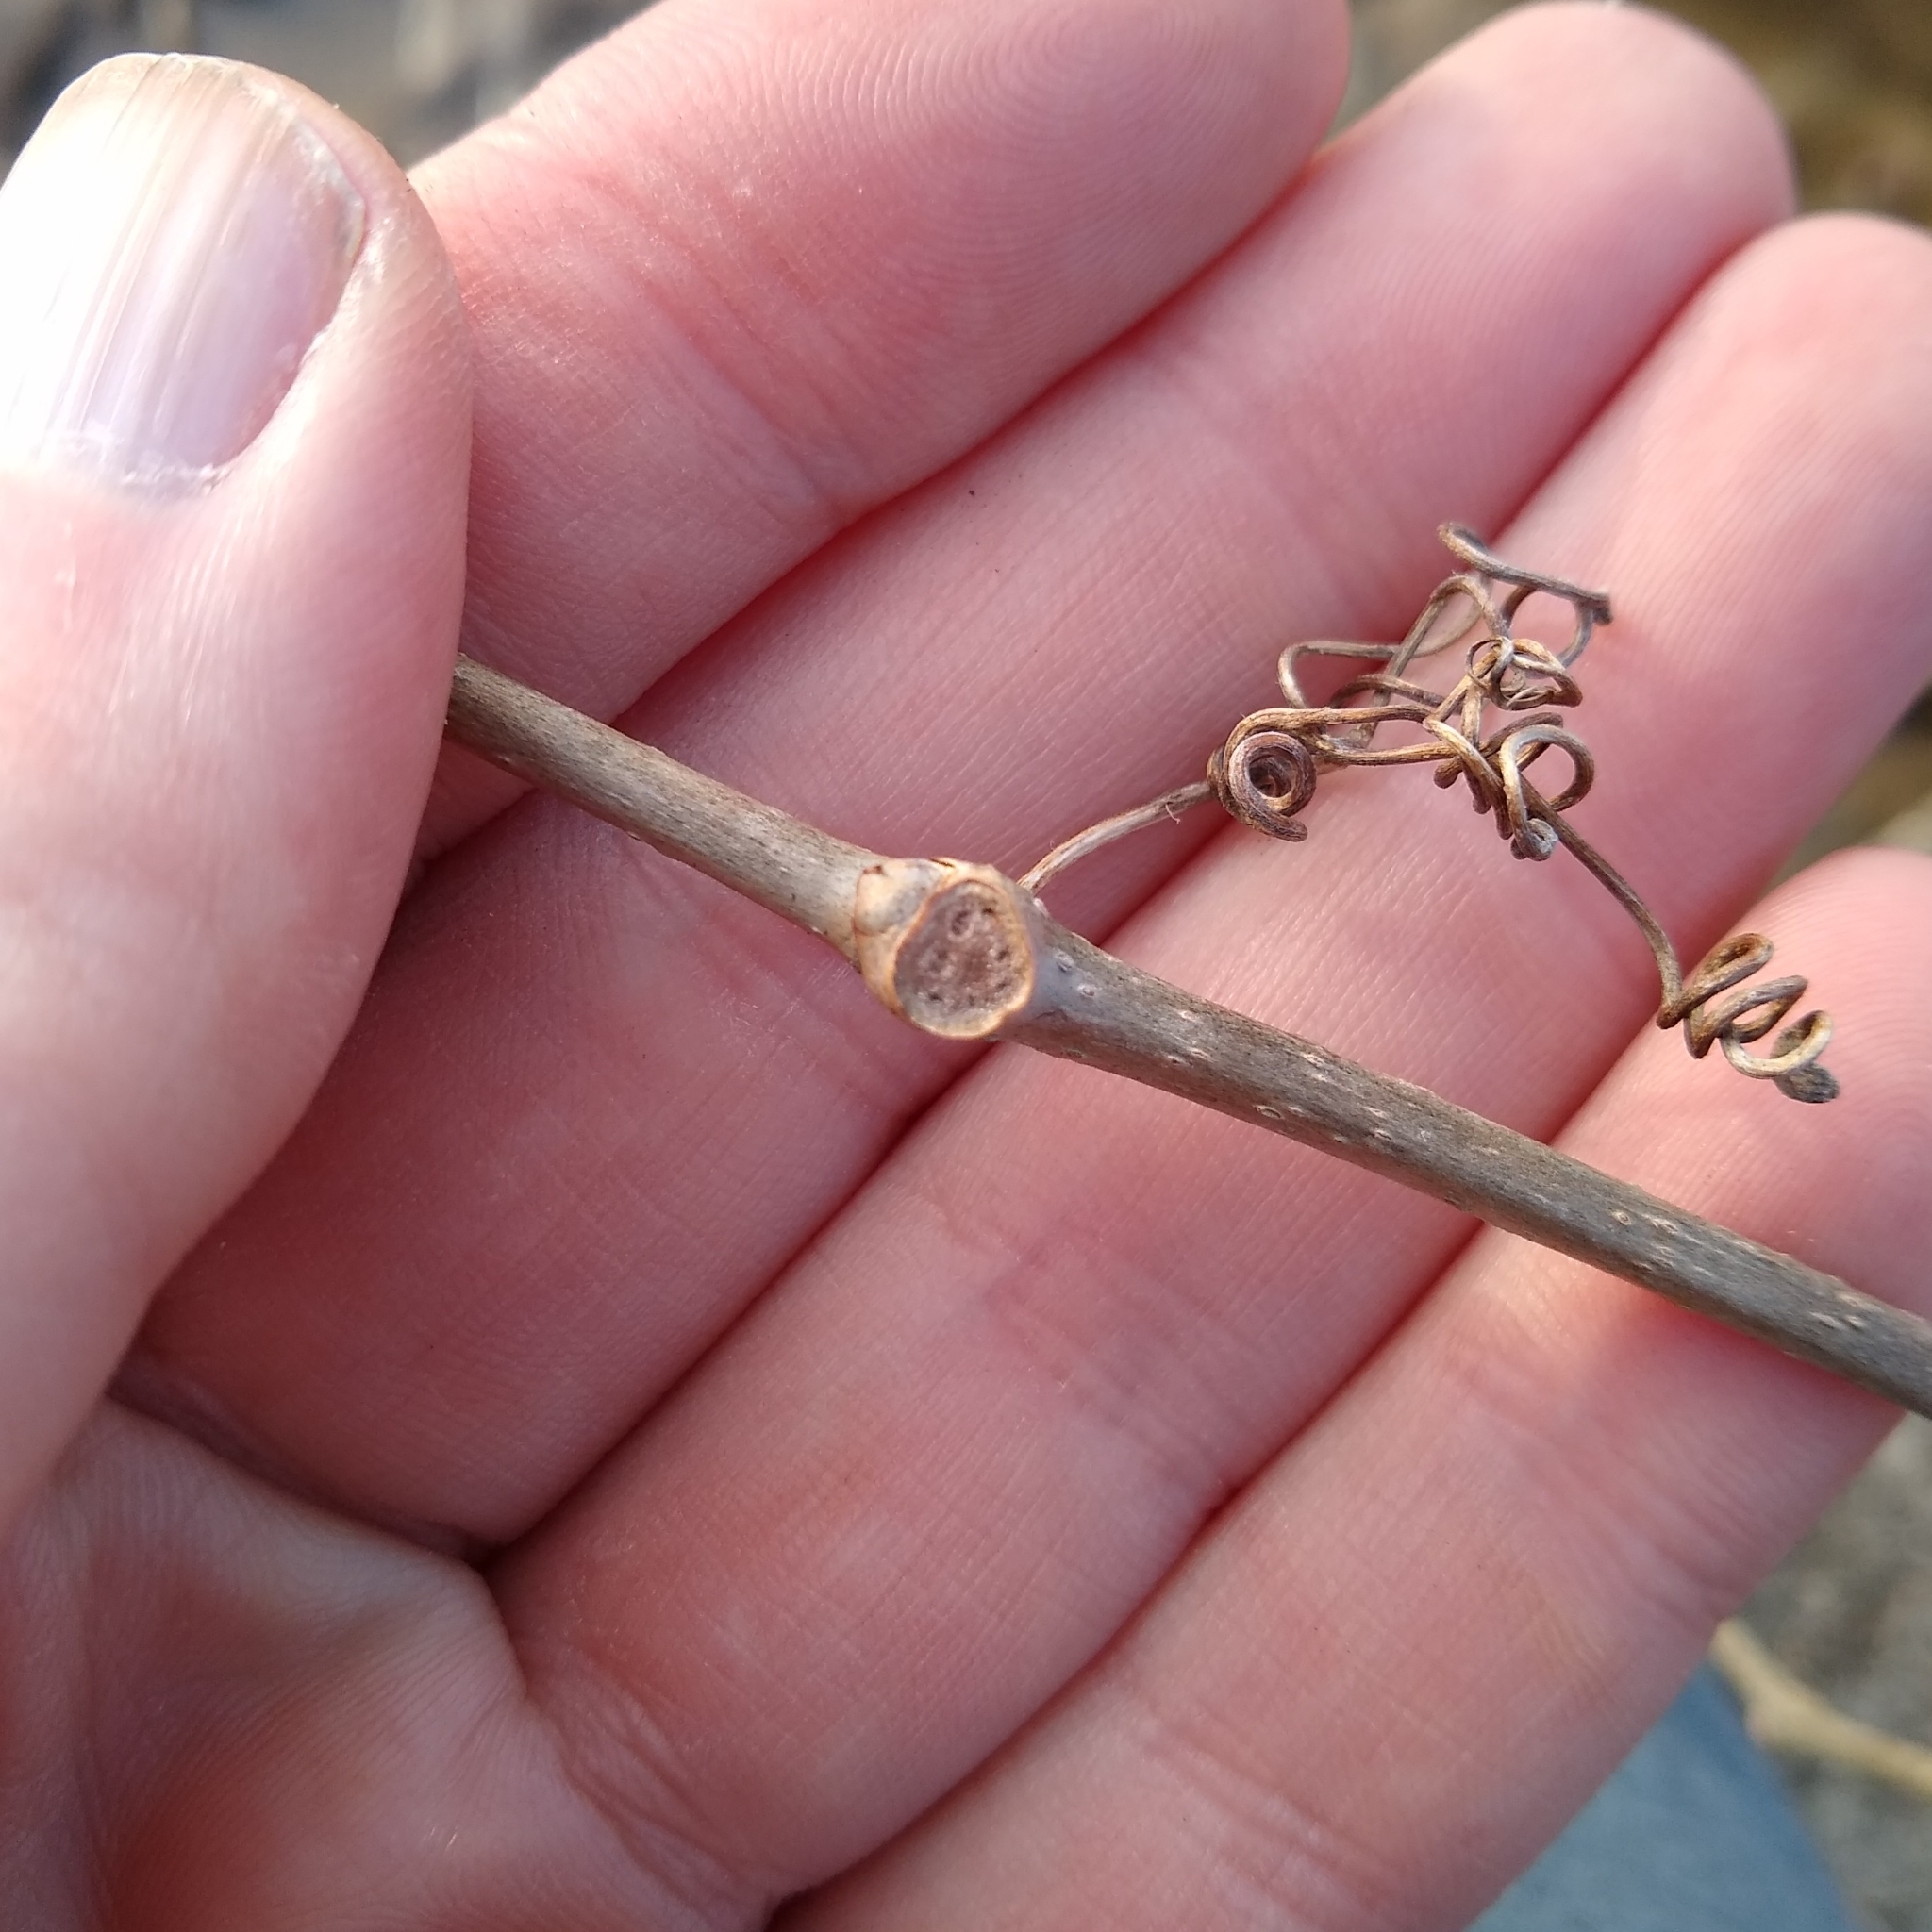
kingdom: Plantae
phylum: Tracheophyta
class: Magnoliopsida
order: Vitales
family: Vitaceae
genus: Parthenocissus
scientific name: Parthenocissus inserta
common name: False virginia-creeper
